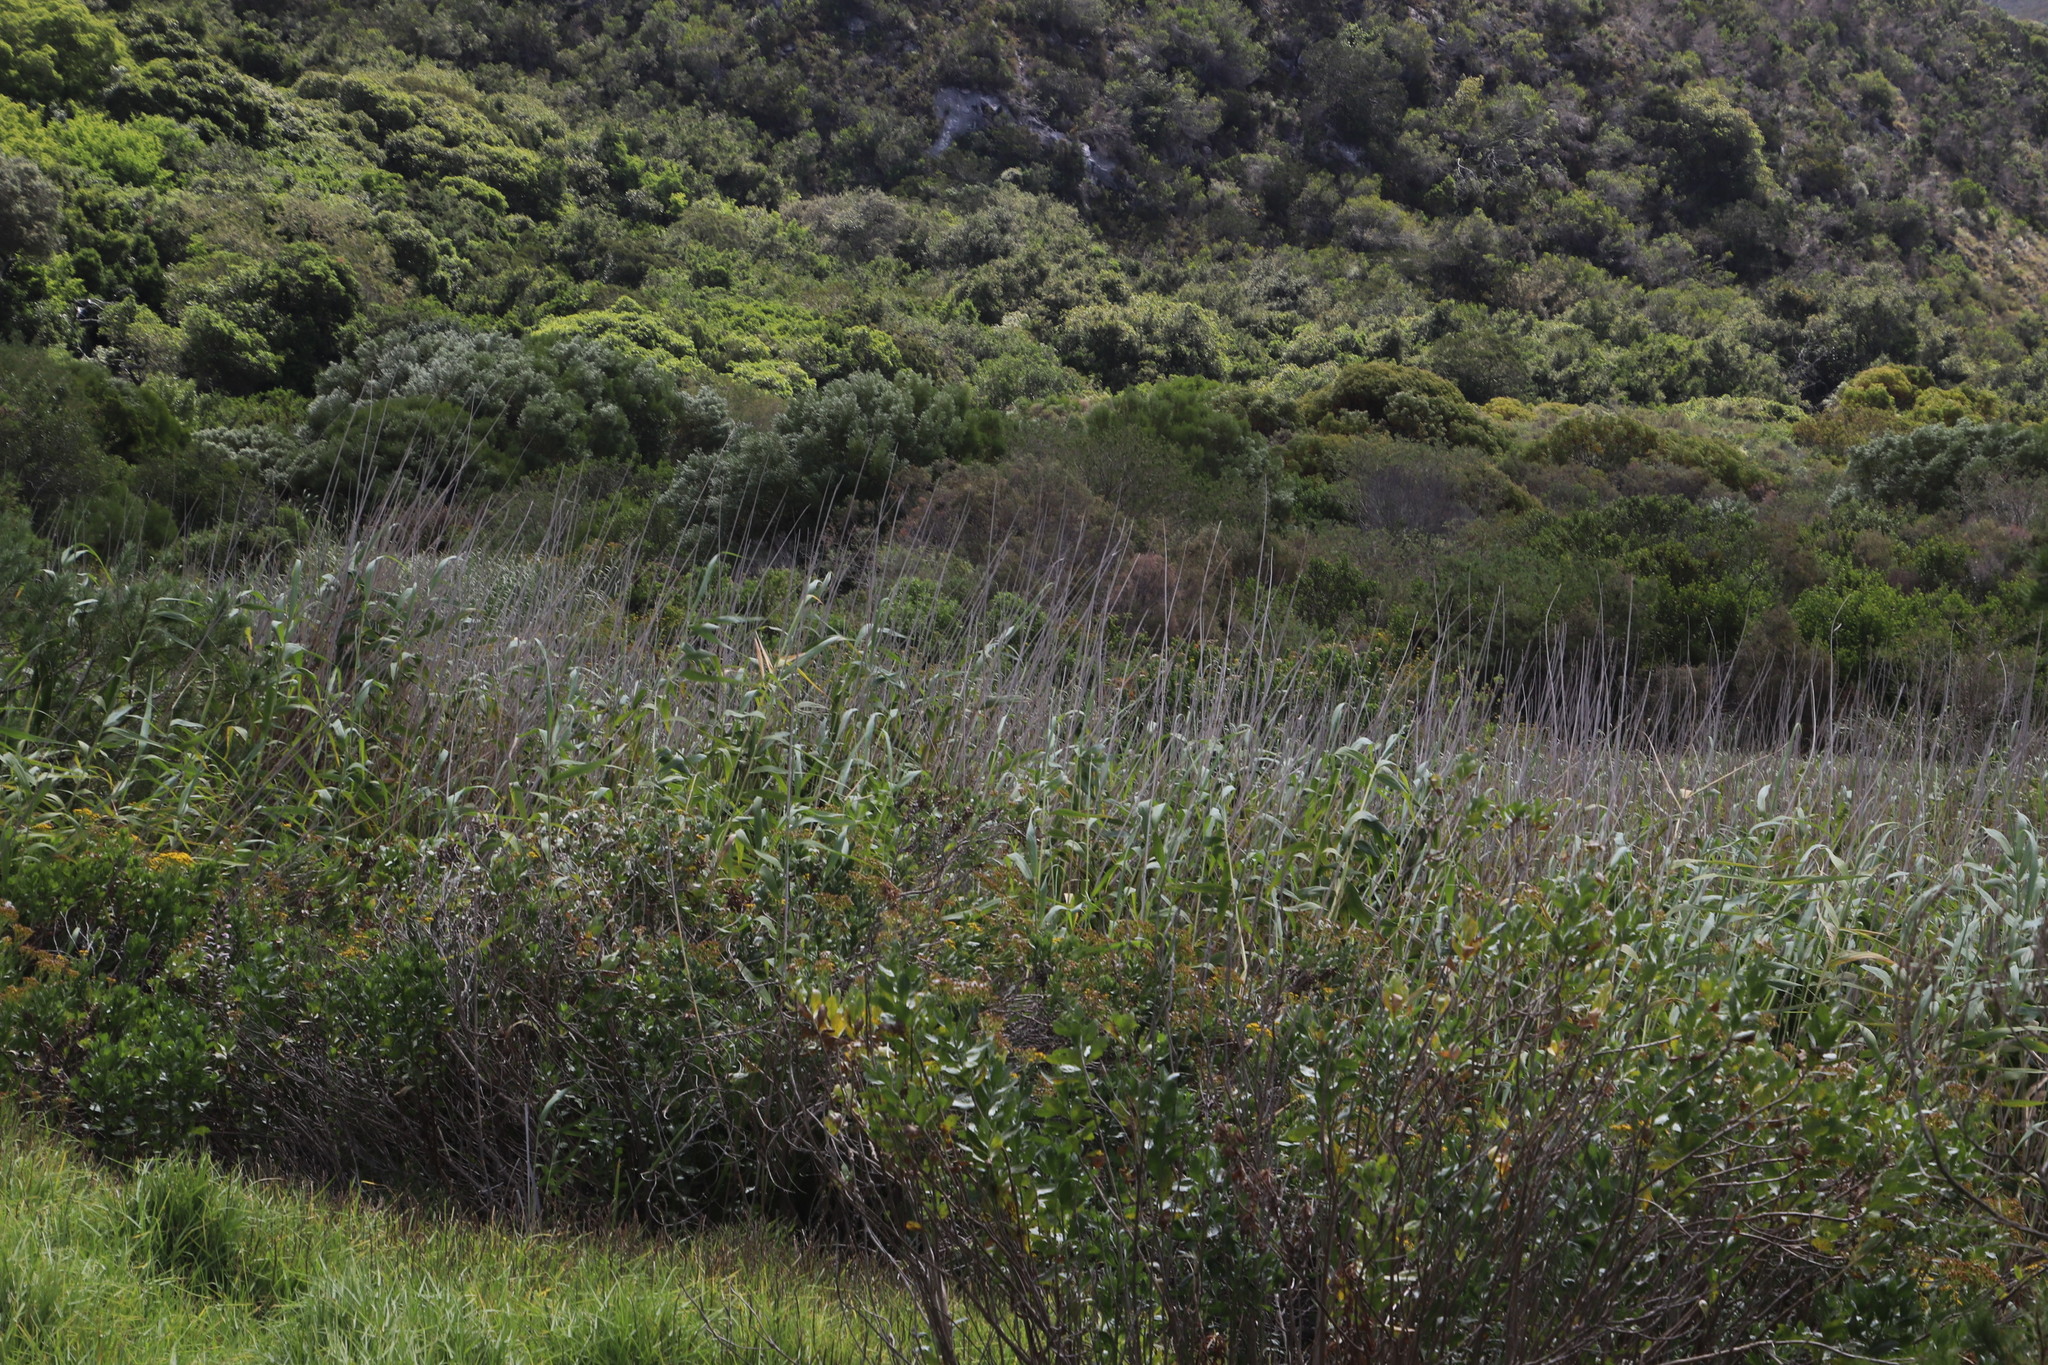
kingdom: Plantae
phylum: Tracheophyta
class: Liliopsida
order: Poales
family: Poaceae
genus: Phragmites
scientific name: Phragmites australis
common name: Common reed
